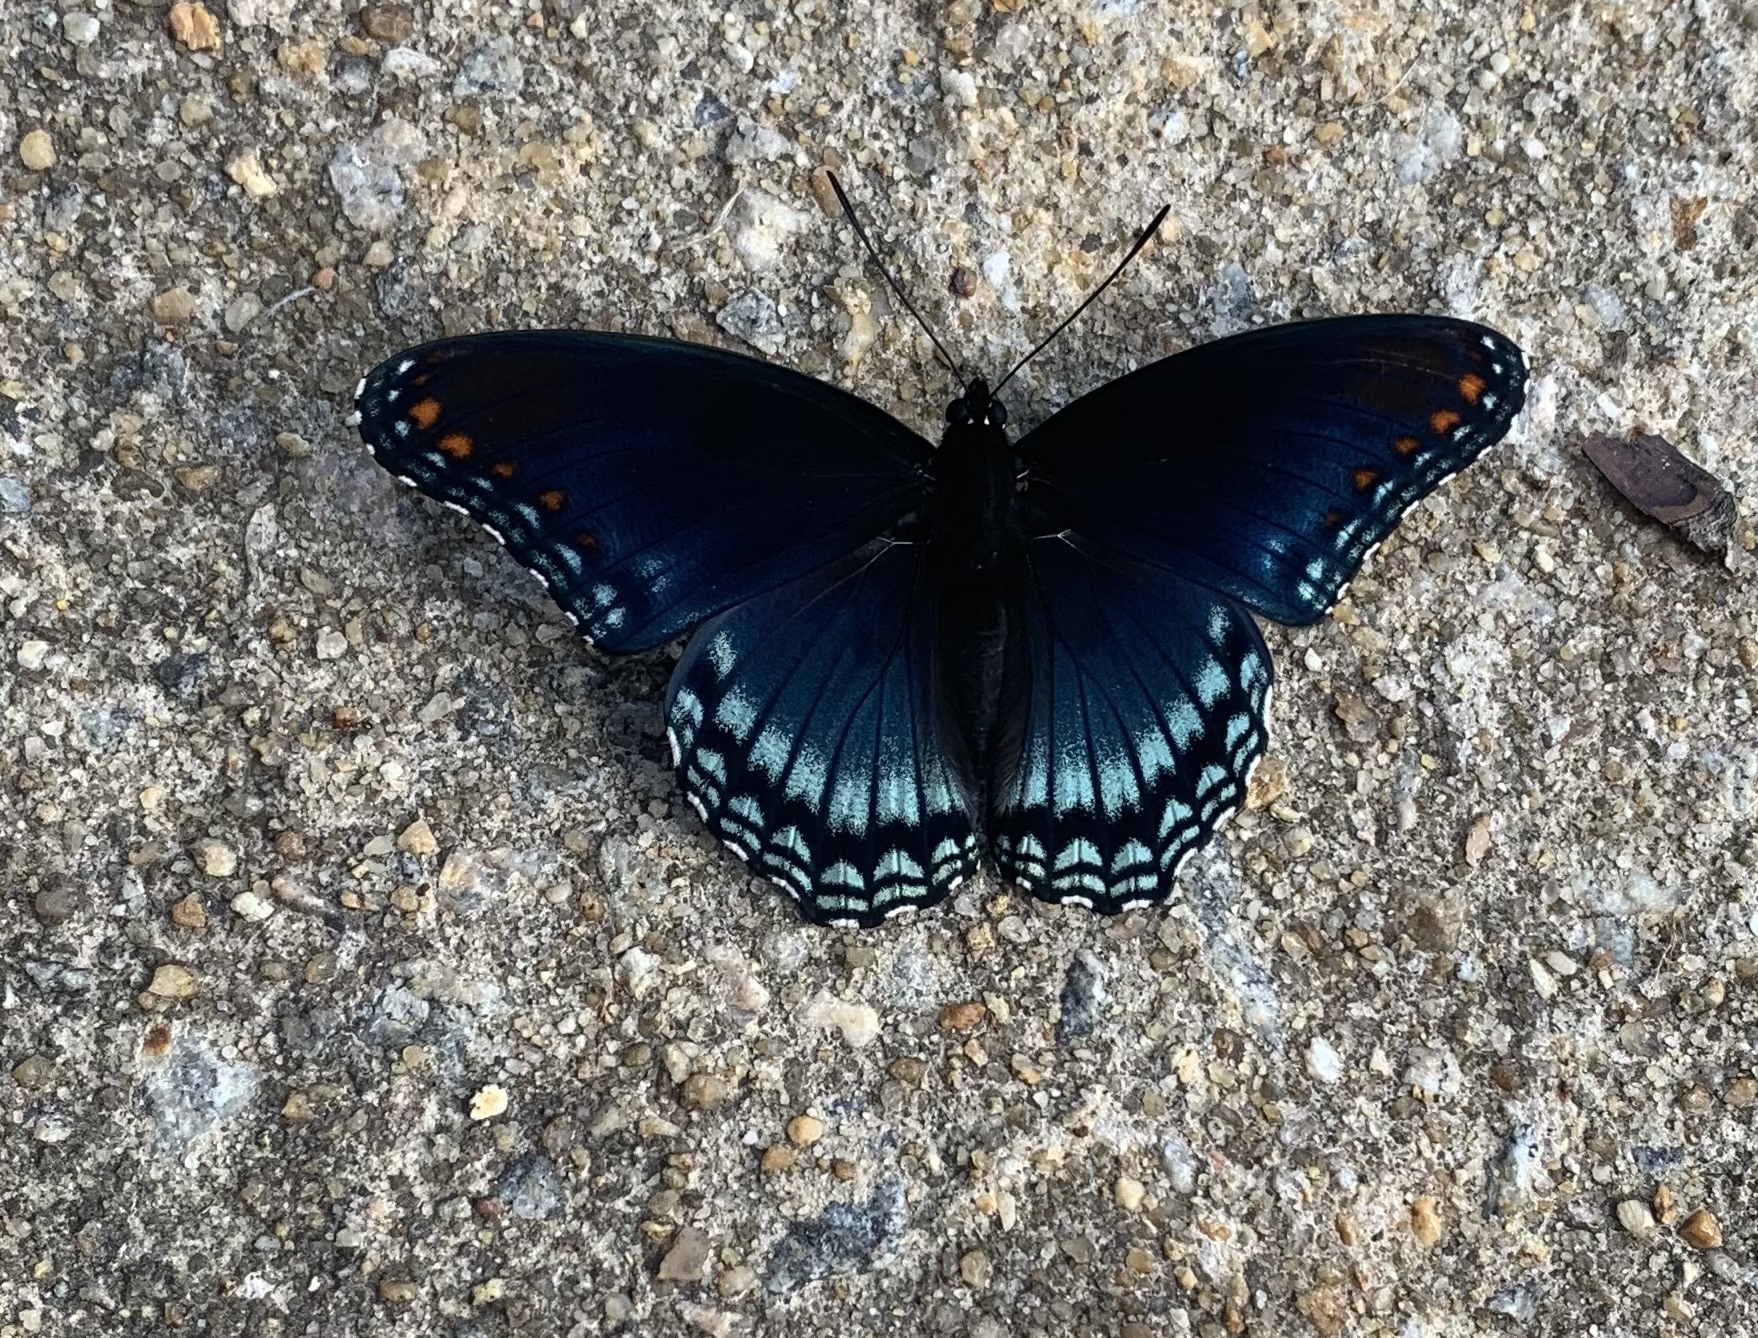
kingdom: Animalia
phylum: Arthropoda
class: Insecta
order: Lepidoptera
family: Nymphalidae
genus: Limenitis
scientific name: Limenitis astyanax
